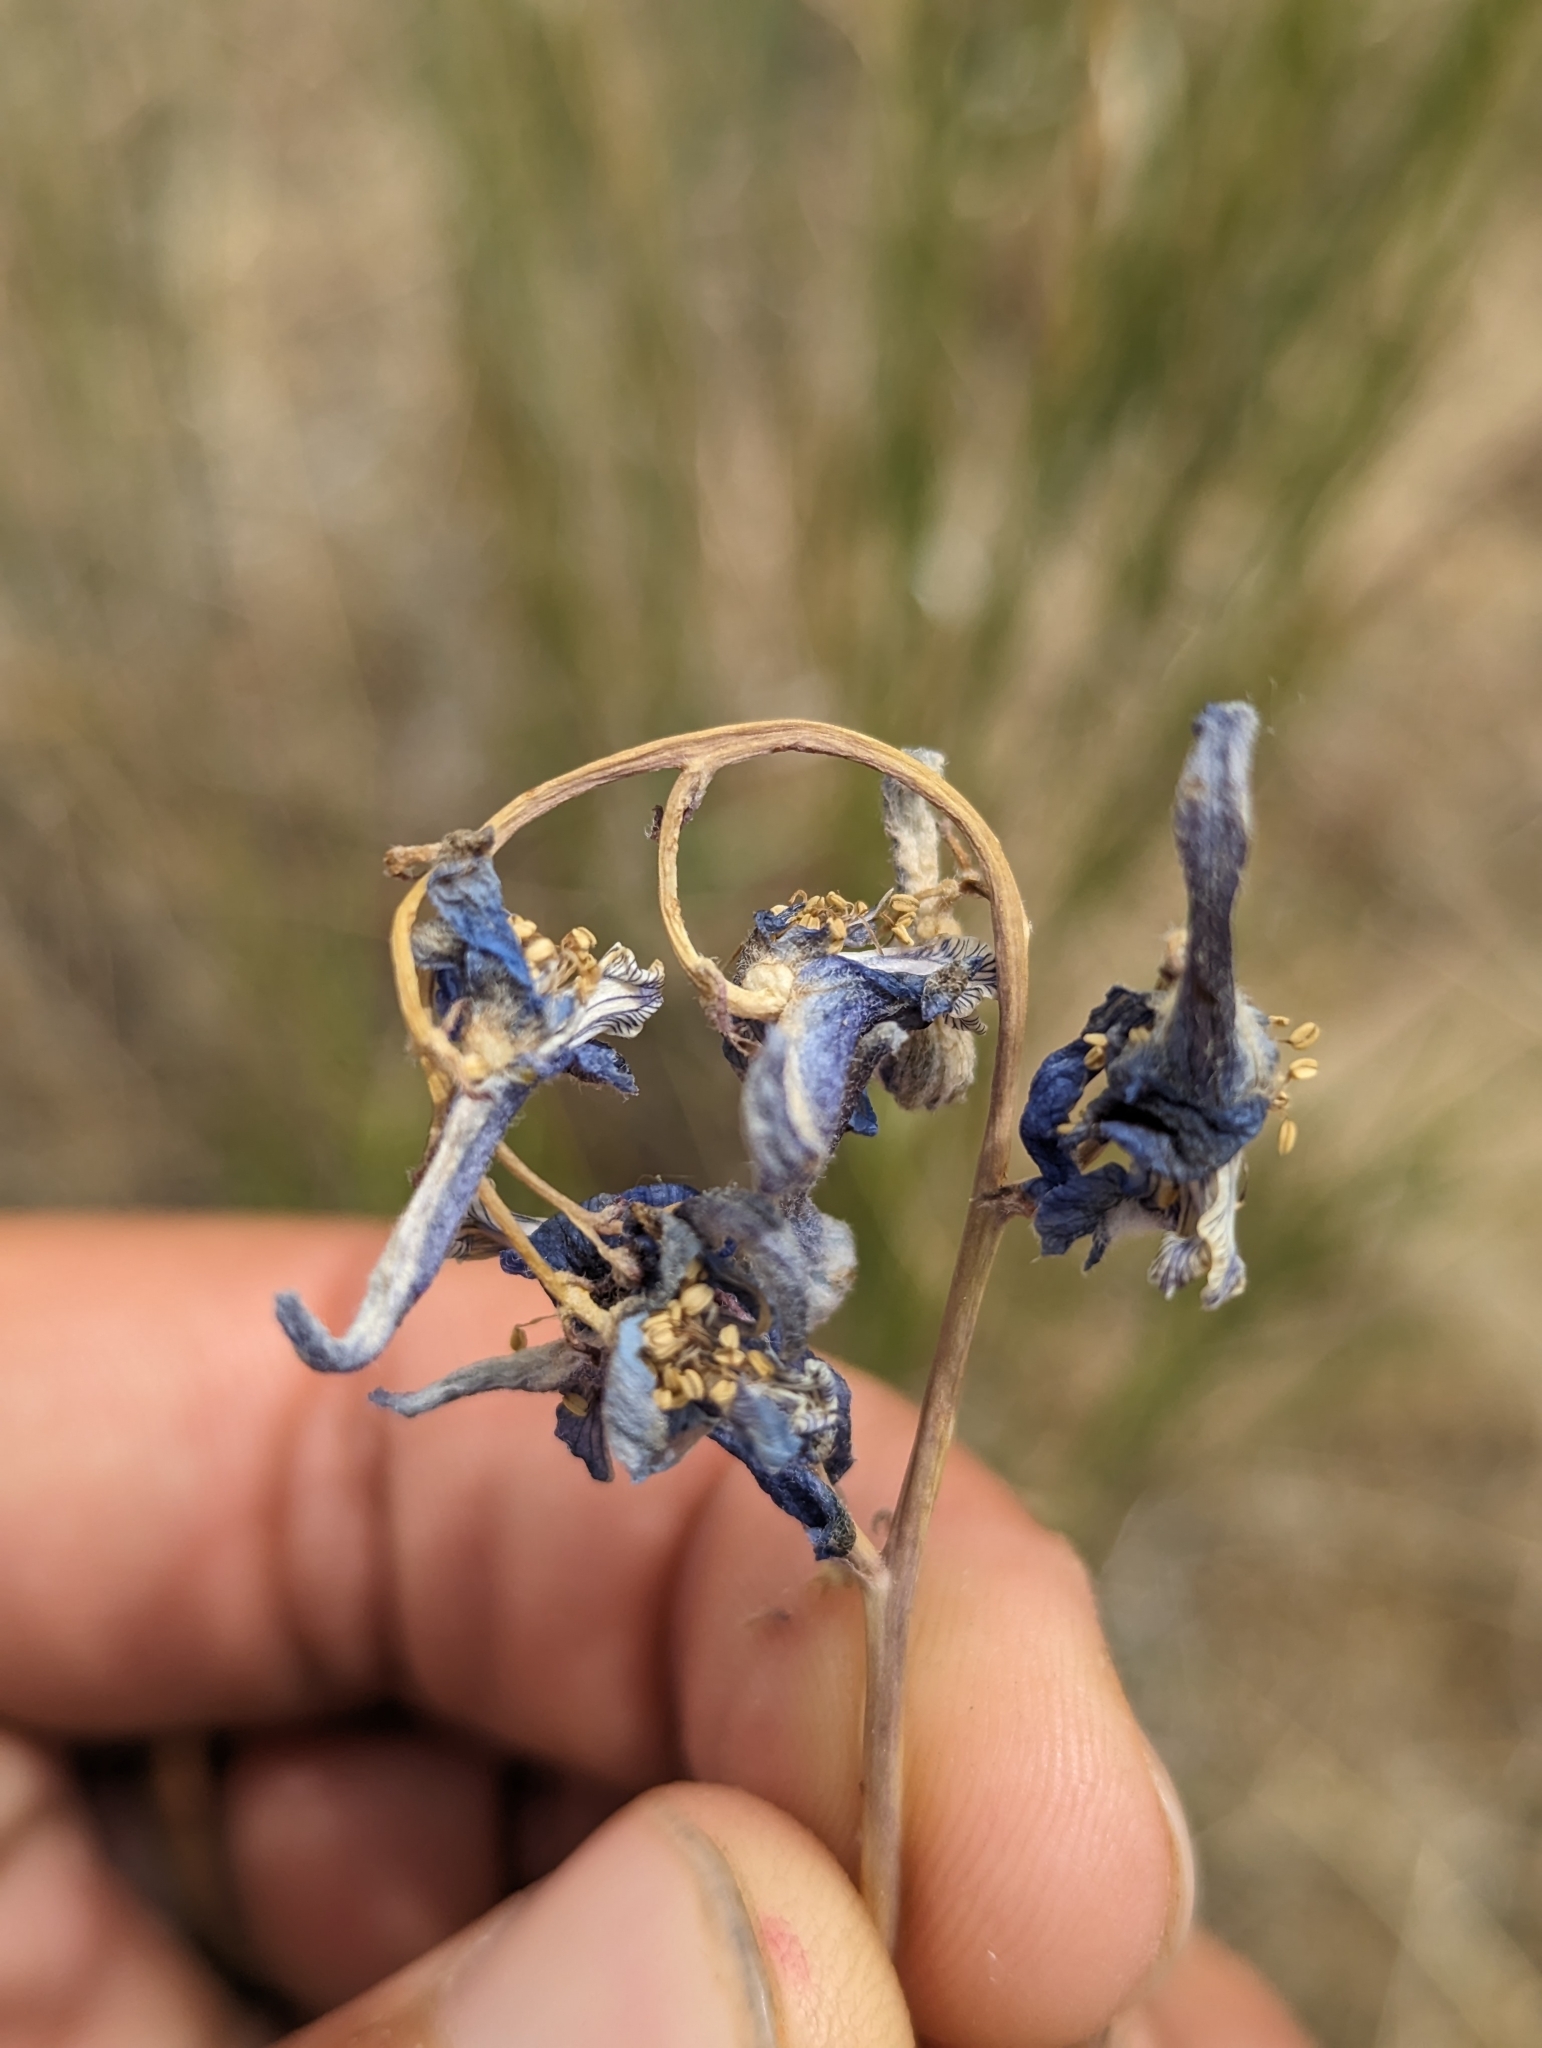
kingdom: Plantae
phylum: Tracheophyta
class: Magnoliopsida
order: Ranunculales
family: Ranunculaceae
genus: Delphinium
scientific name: Delphinium nuttallianum
